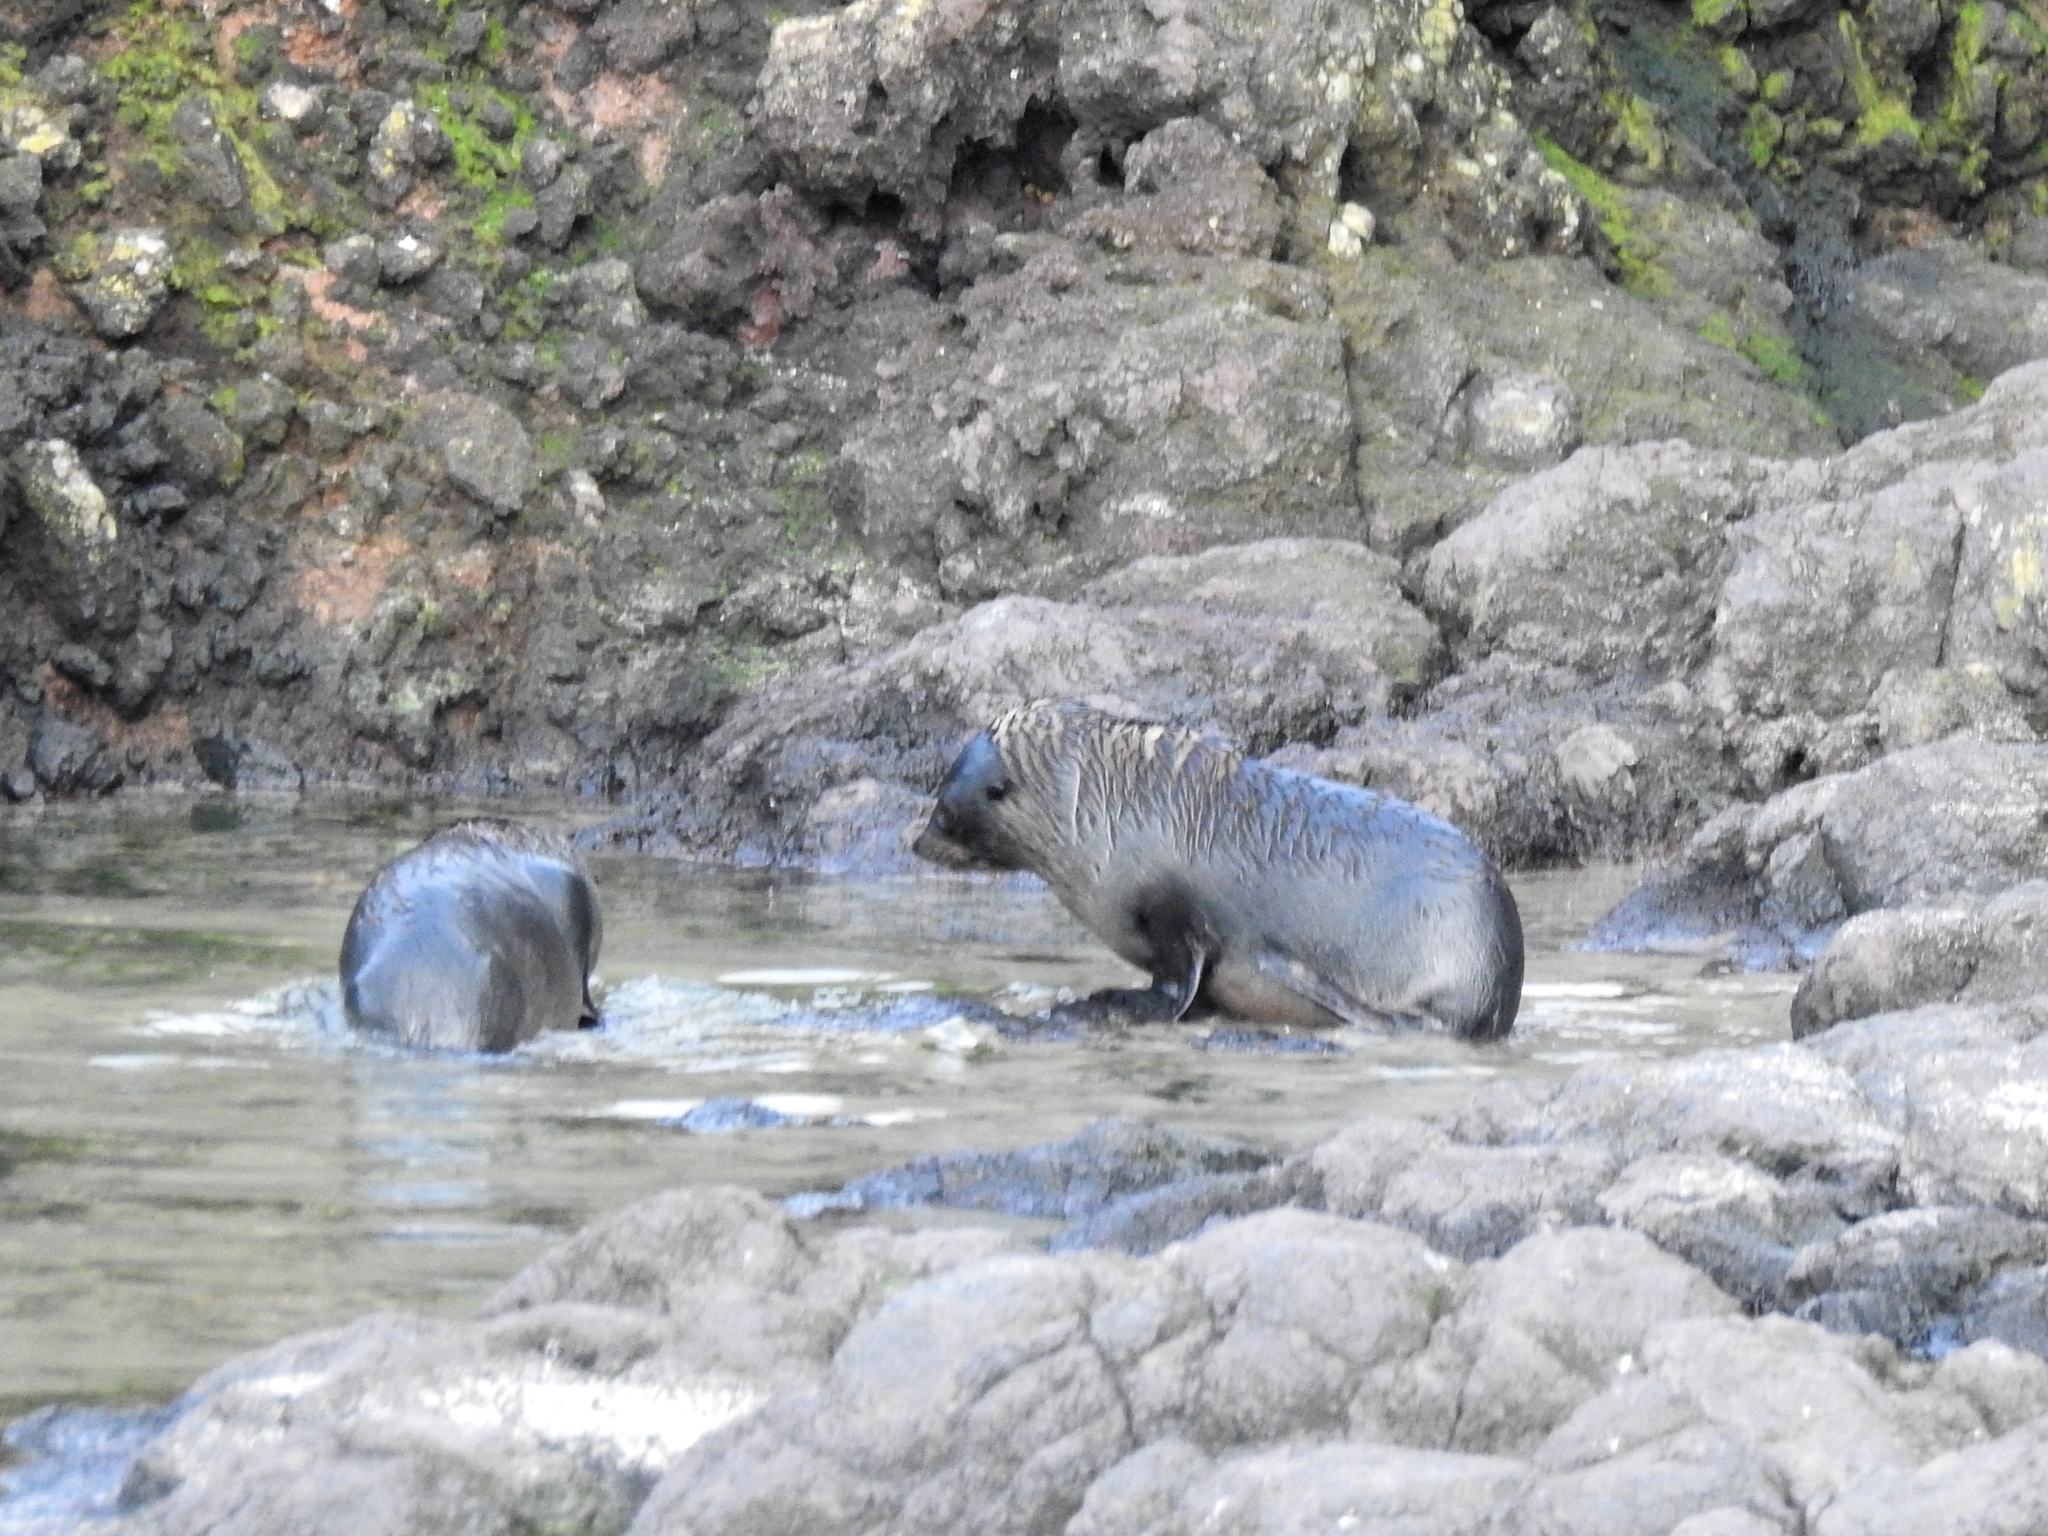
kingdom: Animalia
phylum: Chordata
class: Mammalia
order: Carnivora
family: Otariidae
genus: Arctocephalus
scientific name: Arctocephalus forsteri
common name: New zealand fur seal
